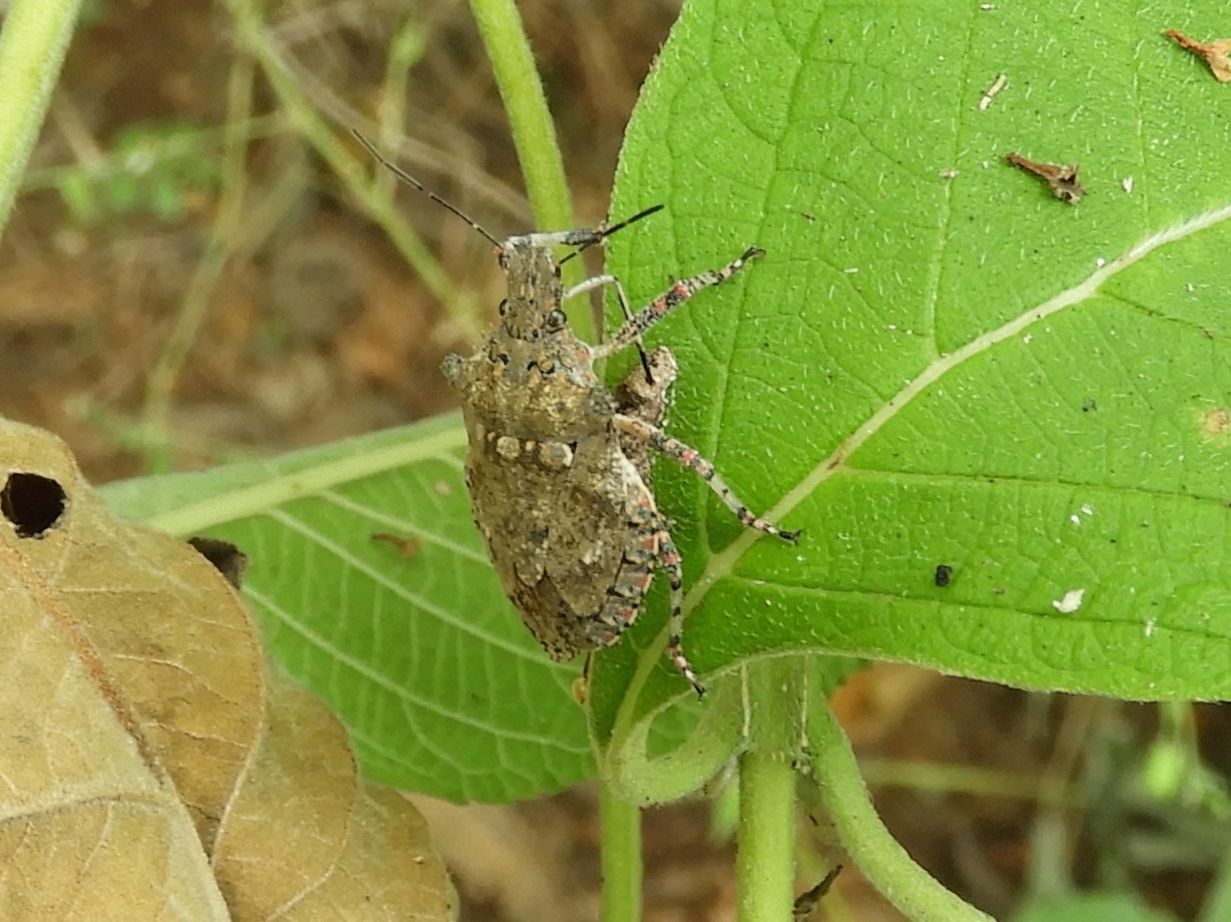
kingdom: Animalia
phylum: Arthropoda
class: Insecta
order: Hemiptera
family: Pentatomidae
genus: Brochymena
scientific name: Brochymena
